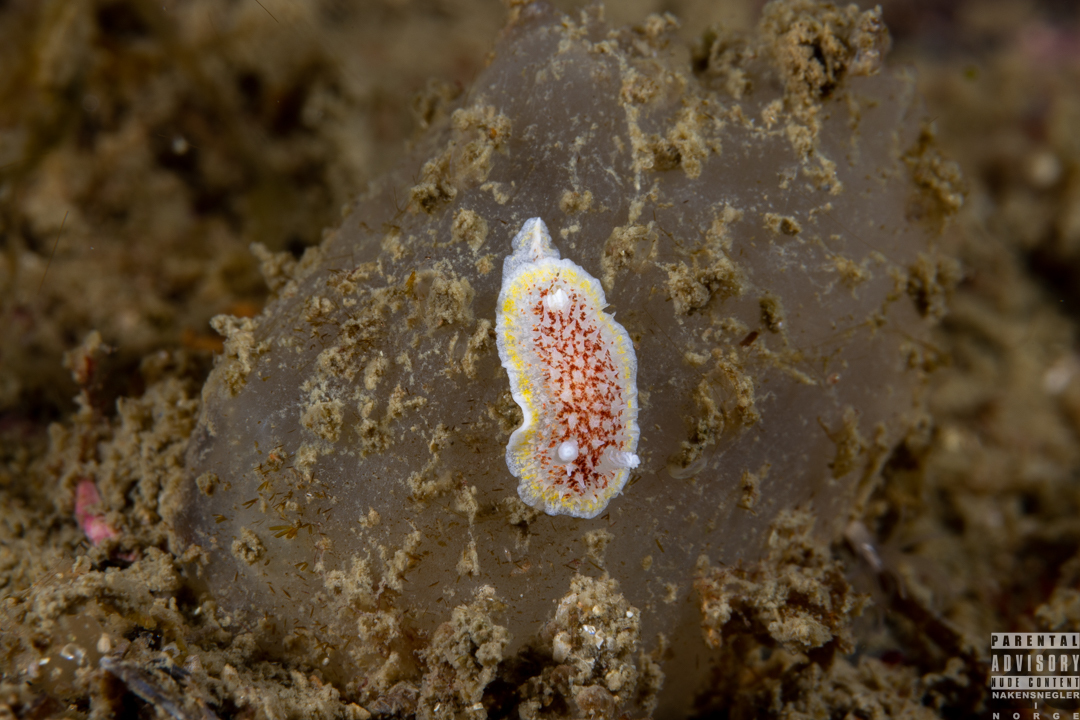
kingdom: Animalia
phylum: Mollusca
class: Gastropoda
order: Nudibranchia
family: Calycidorididae
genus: Diaphorodoris
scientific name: Diaphorodoris luteocincta
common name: Fried egg nudibranch
